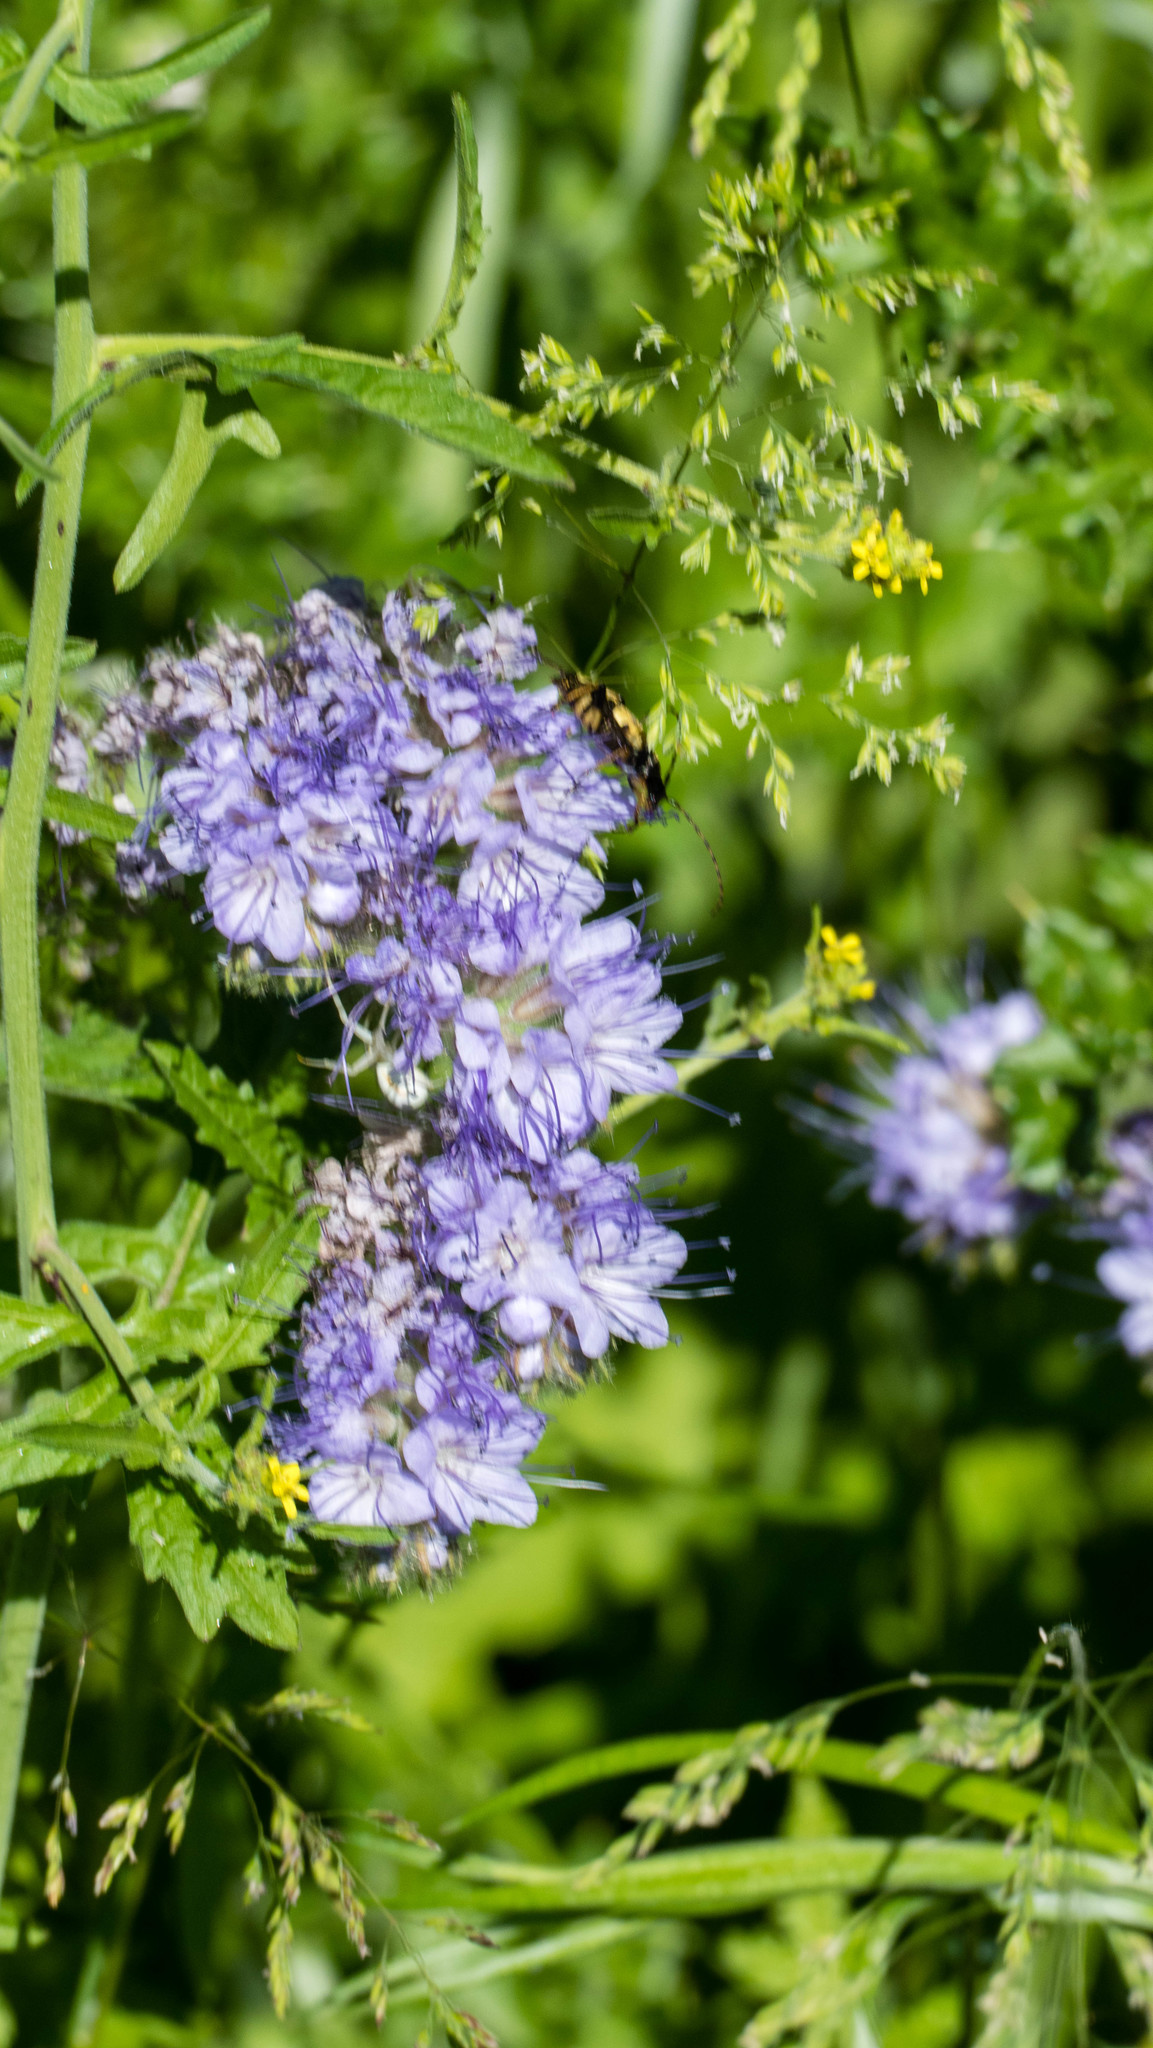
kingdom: Plantae
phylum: Tracheophyta
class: Magnoliopsida
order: Boraginales
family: Hydrophyllaceae
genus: Phacelia
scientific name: Phacelia tanacetifolia
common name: Phacelia
